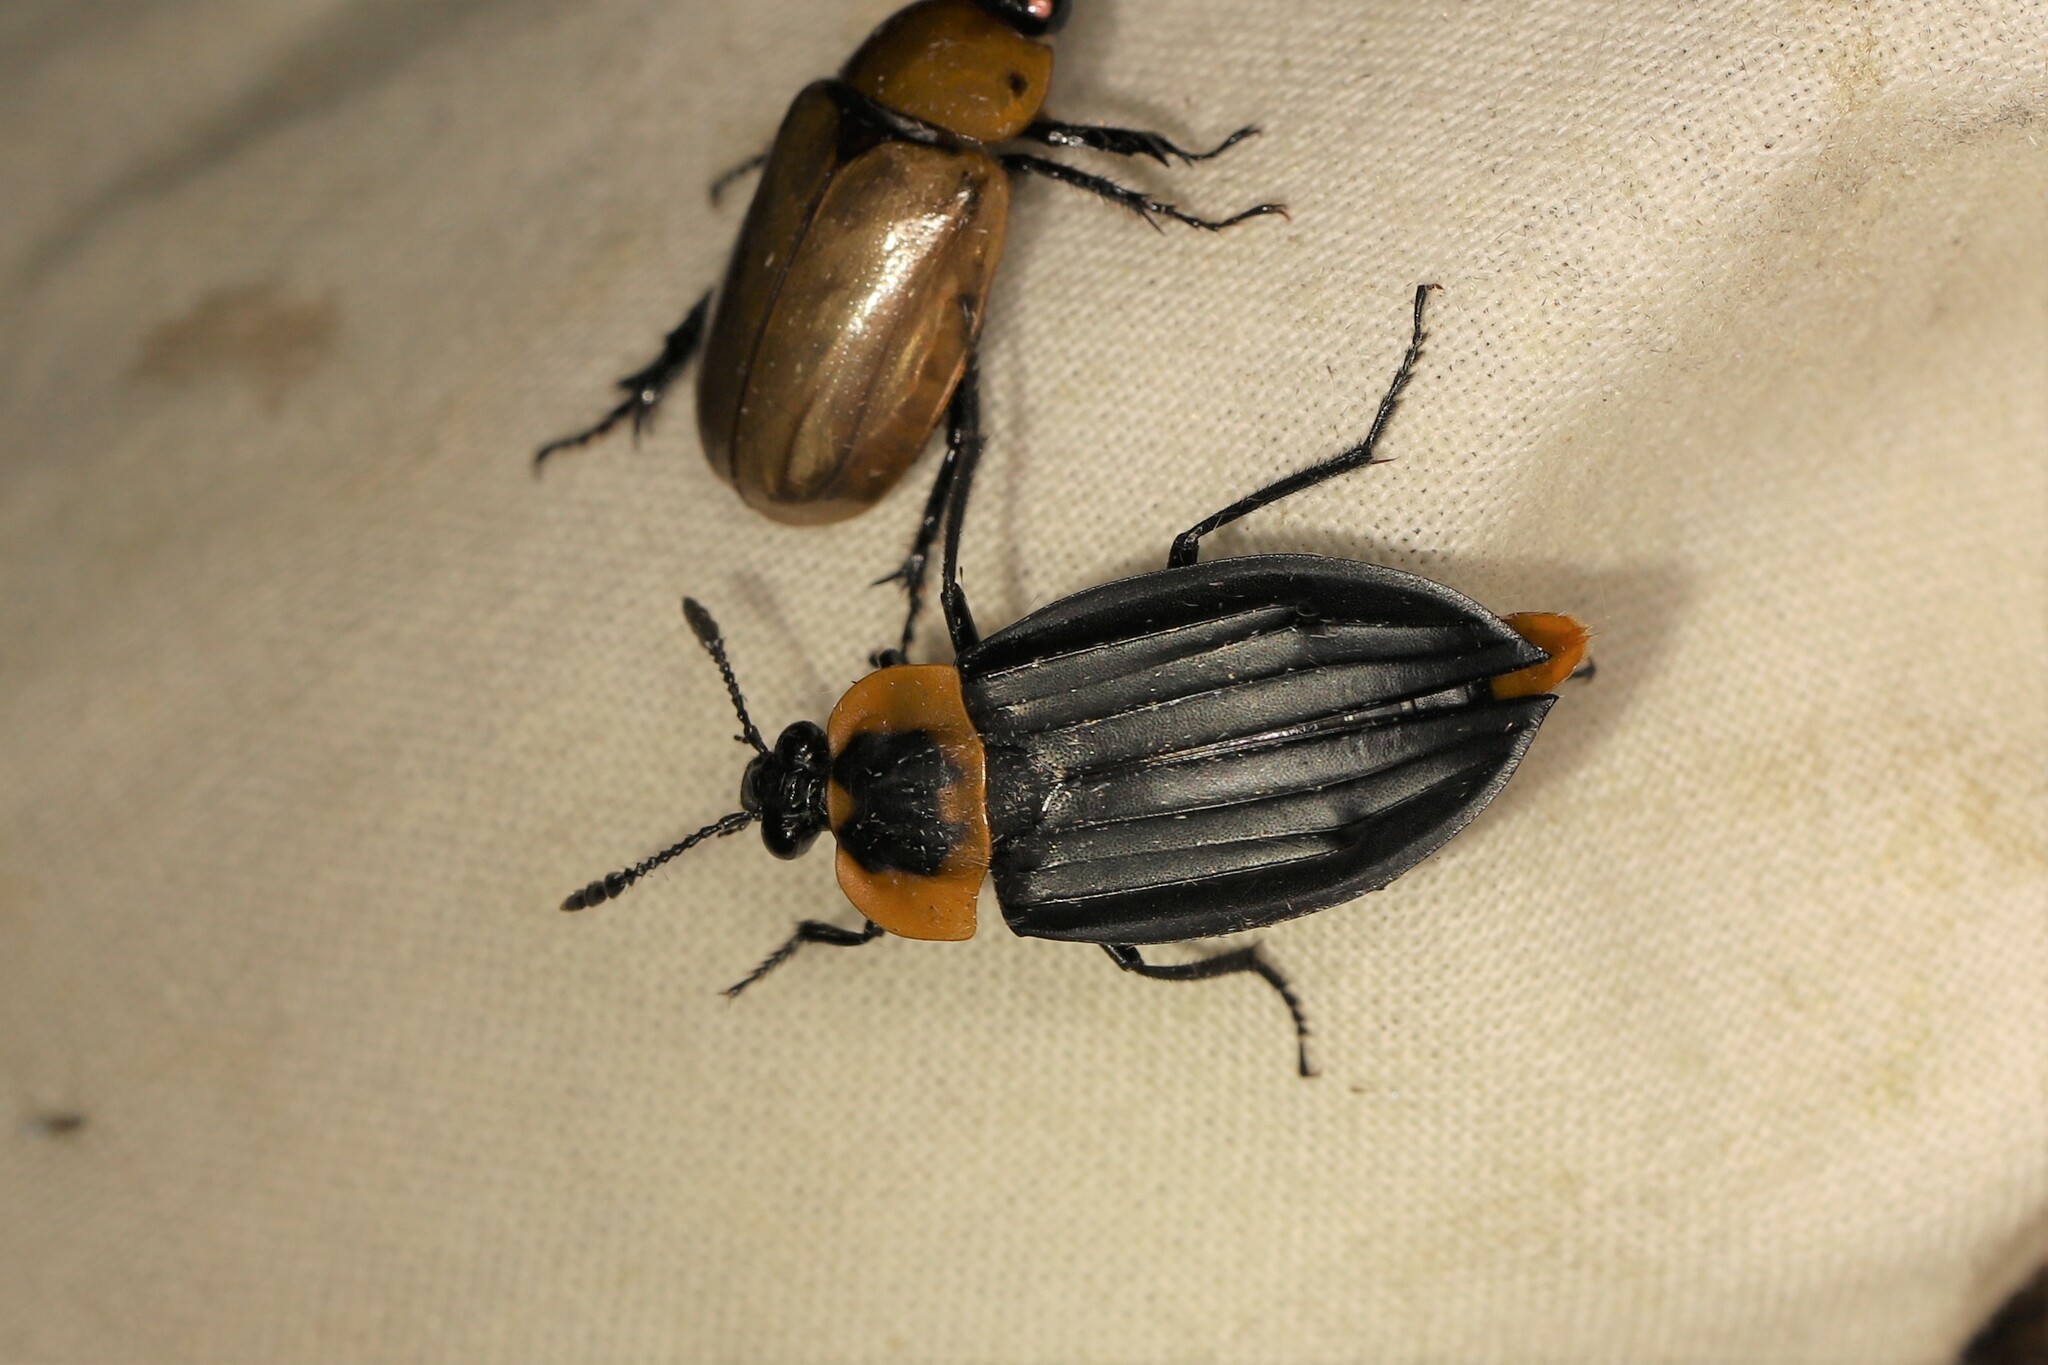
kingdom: Animalia
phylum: Arthropoda
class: Insecta
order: Coleoptera
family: Staphylinidae
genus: Oxelytrum
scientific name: Oxelytrum discicolle
